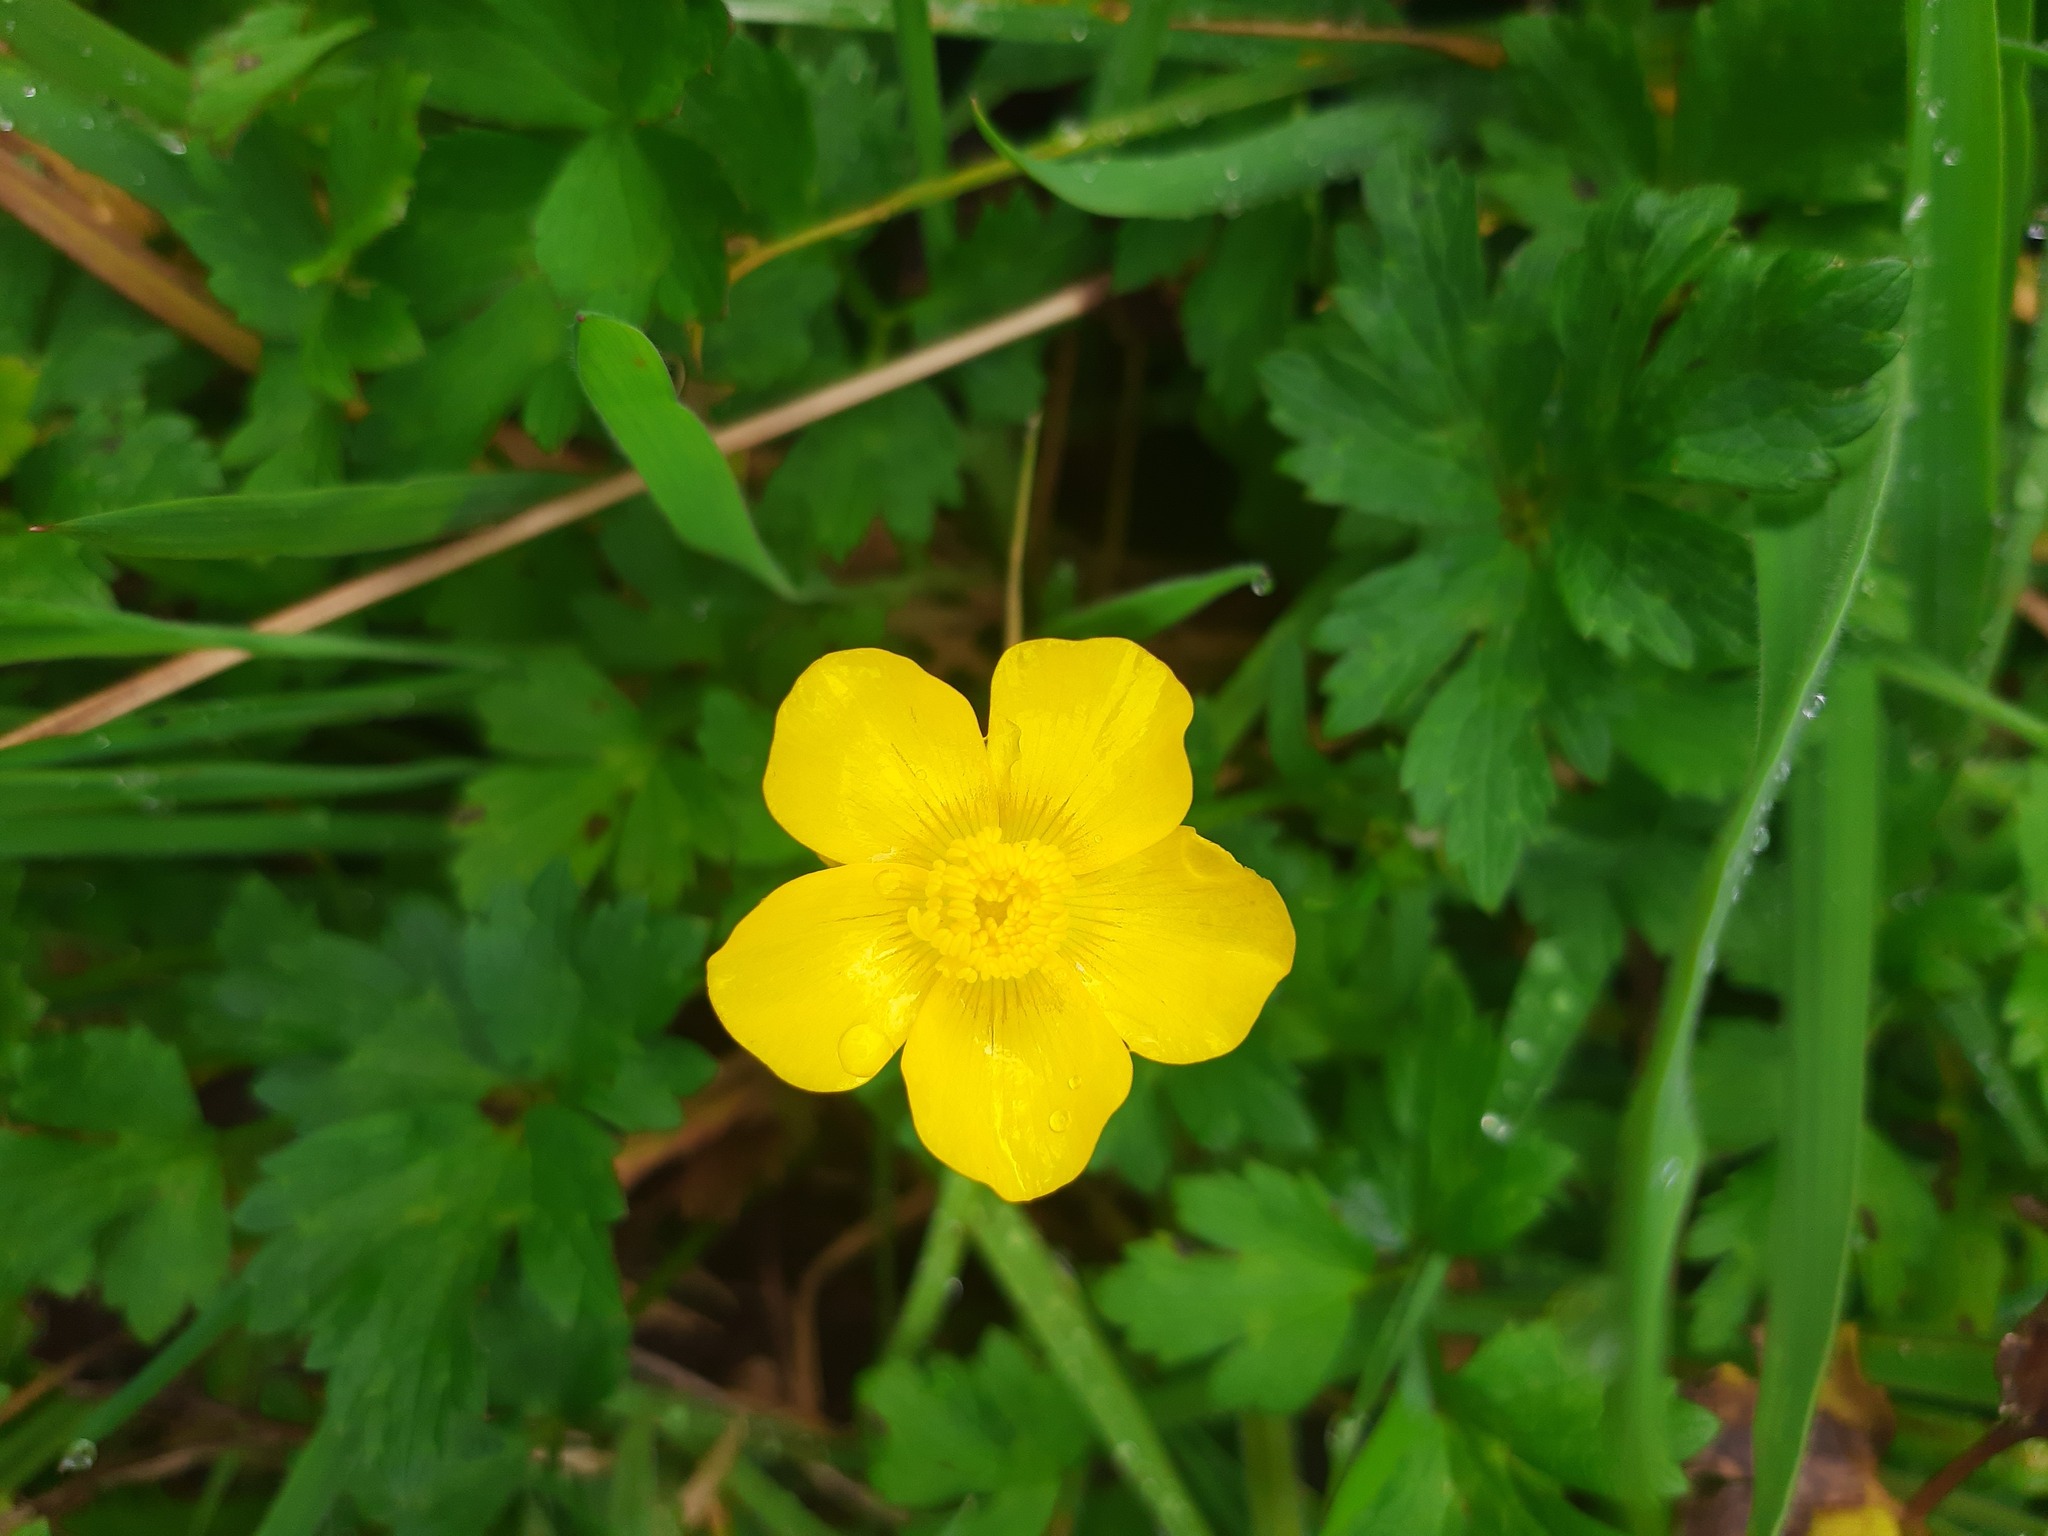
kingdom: Plantae
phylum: Tracheophyta
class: Magnoliopsida
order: Ranunculales
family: Ranunculaceae
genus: Ranunculus
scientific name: Ranunculus repens
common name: Creeping buttercup
